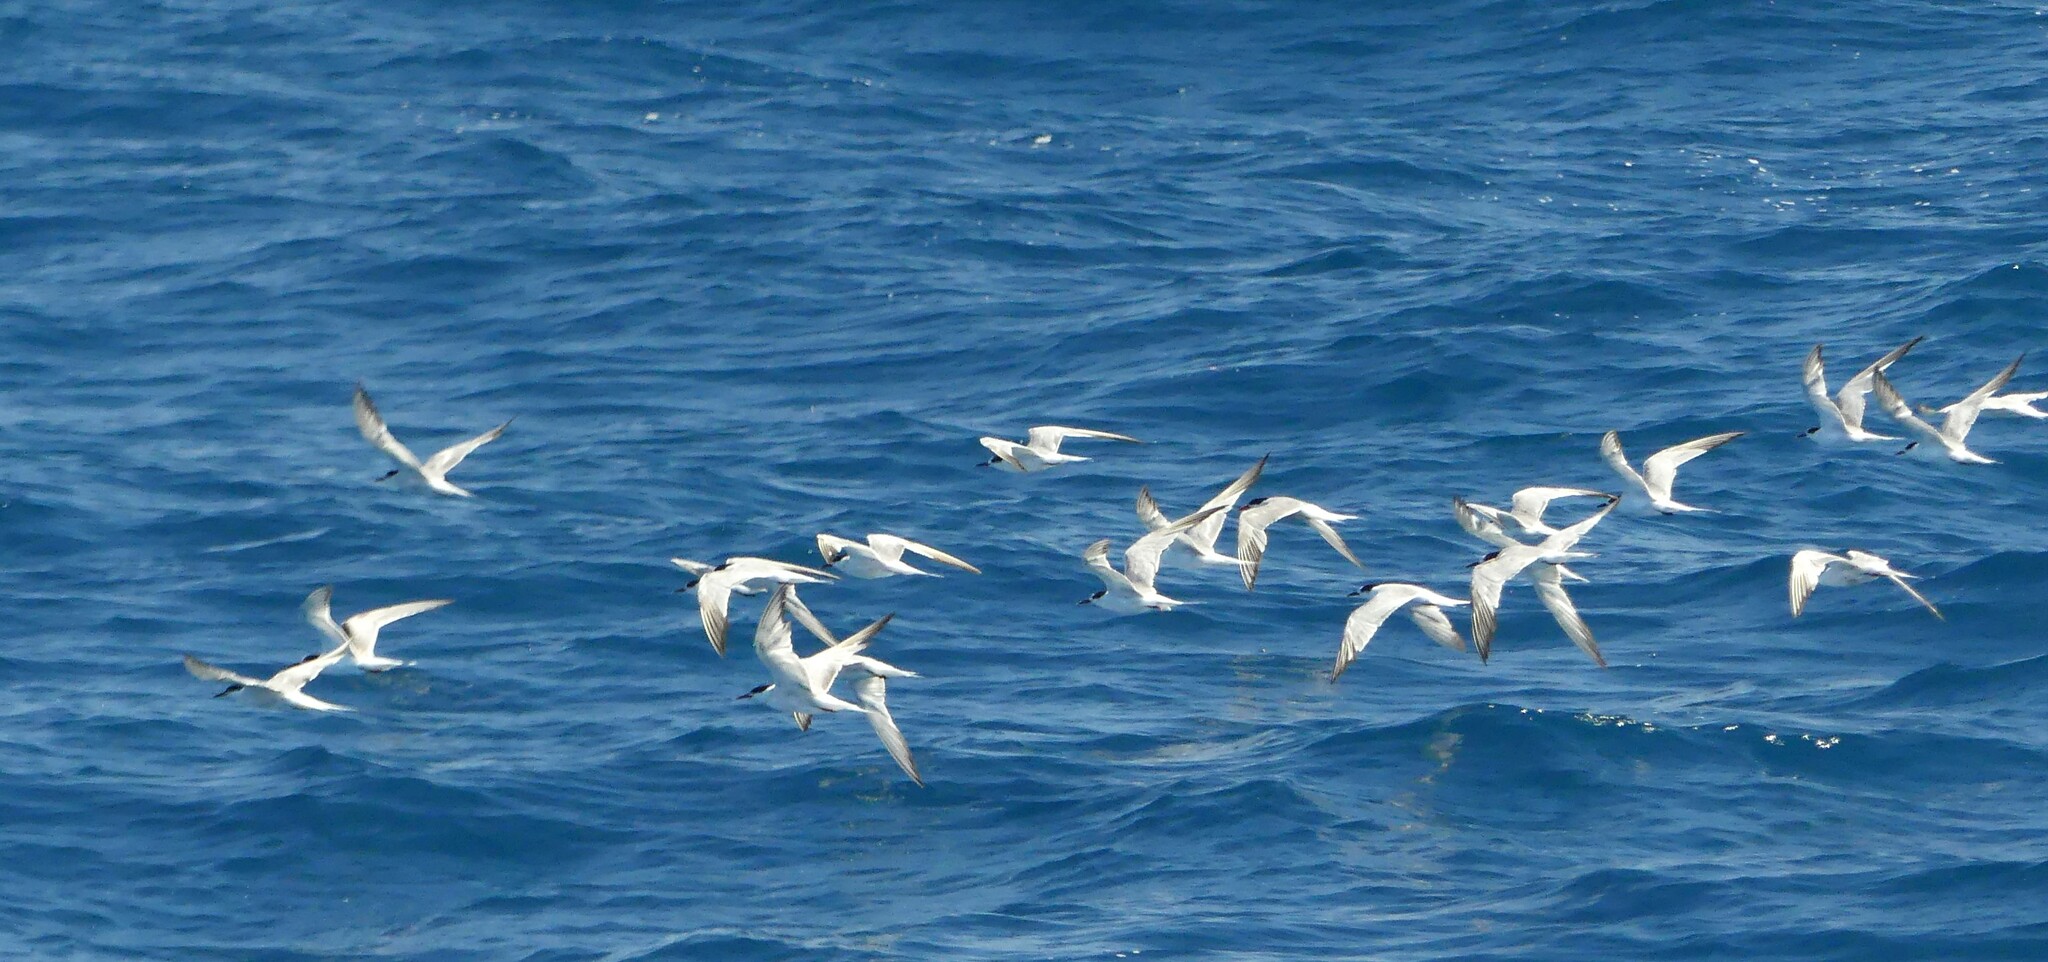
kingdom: Animalia
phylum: Chordata
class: Aves
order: Charadriiformes
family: Laridae
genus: Thalasseus
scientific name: Thalasseus sandvicensis
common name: Sandwich tern
